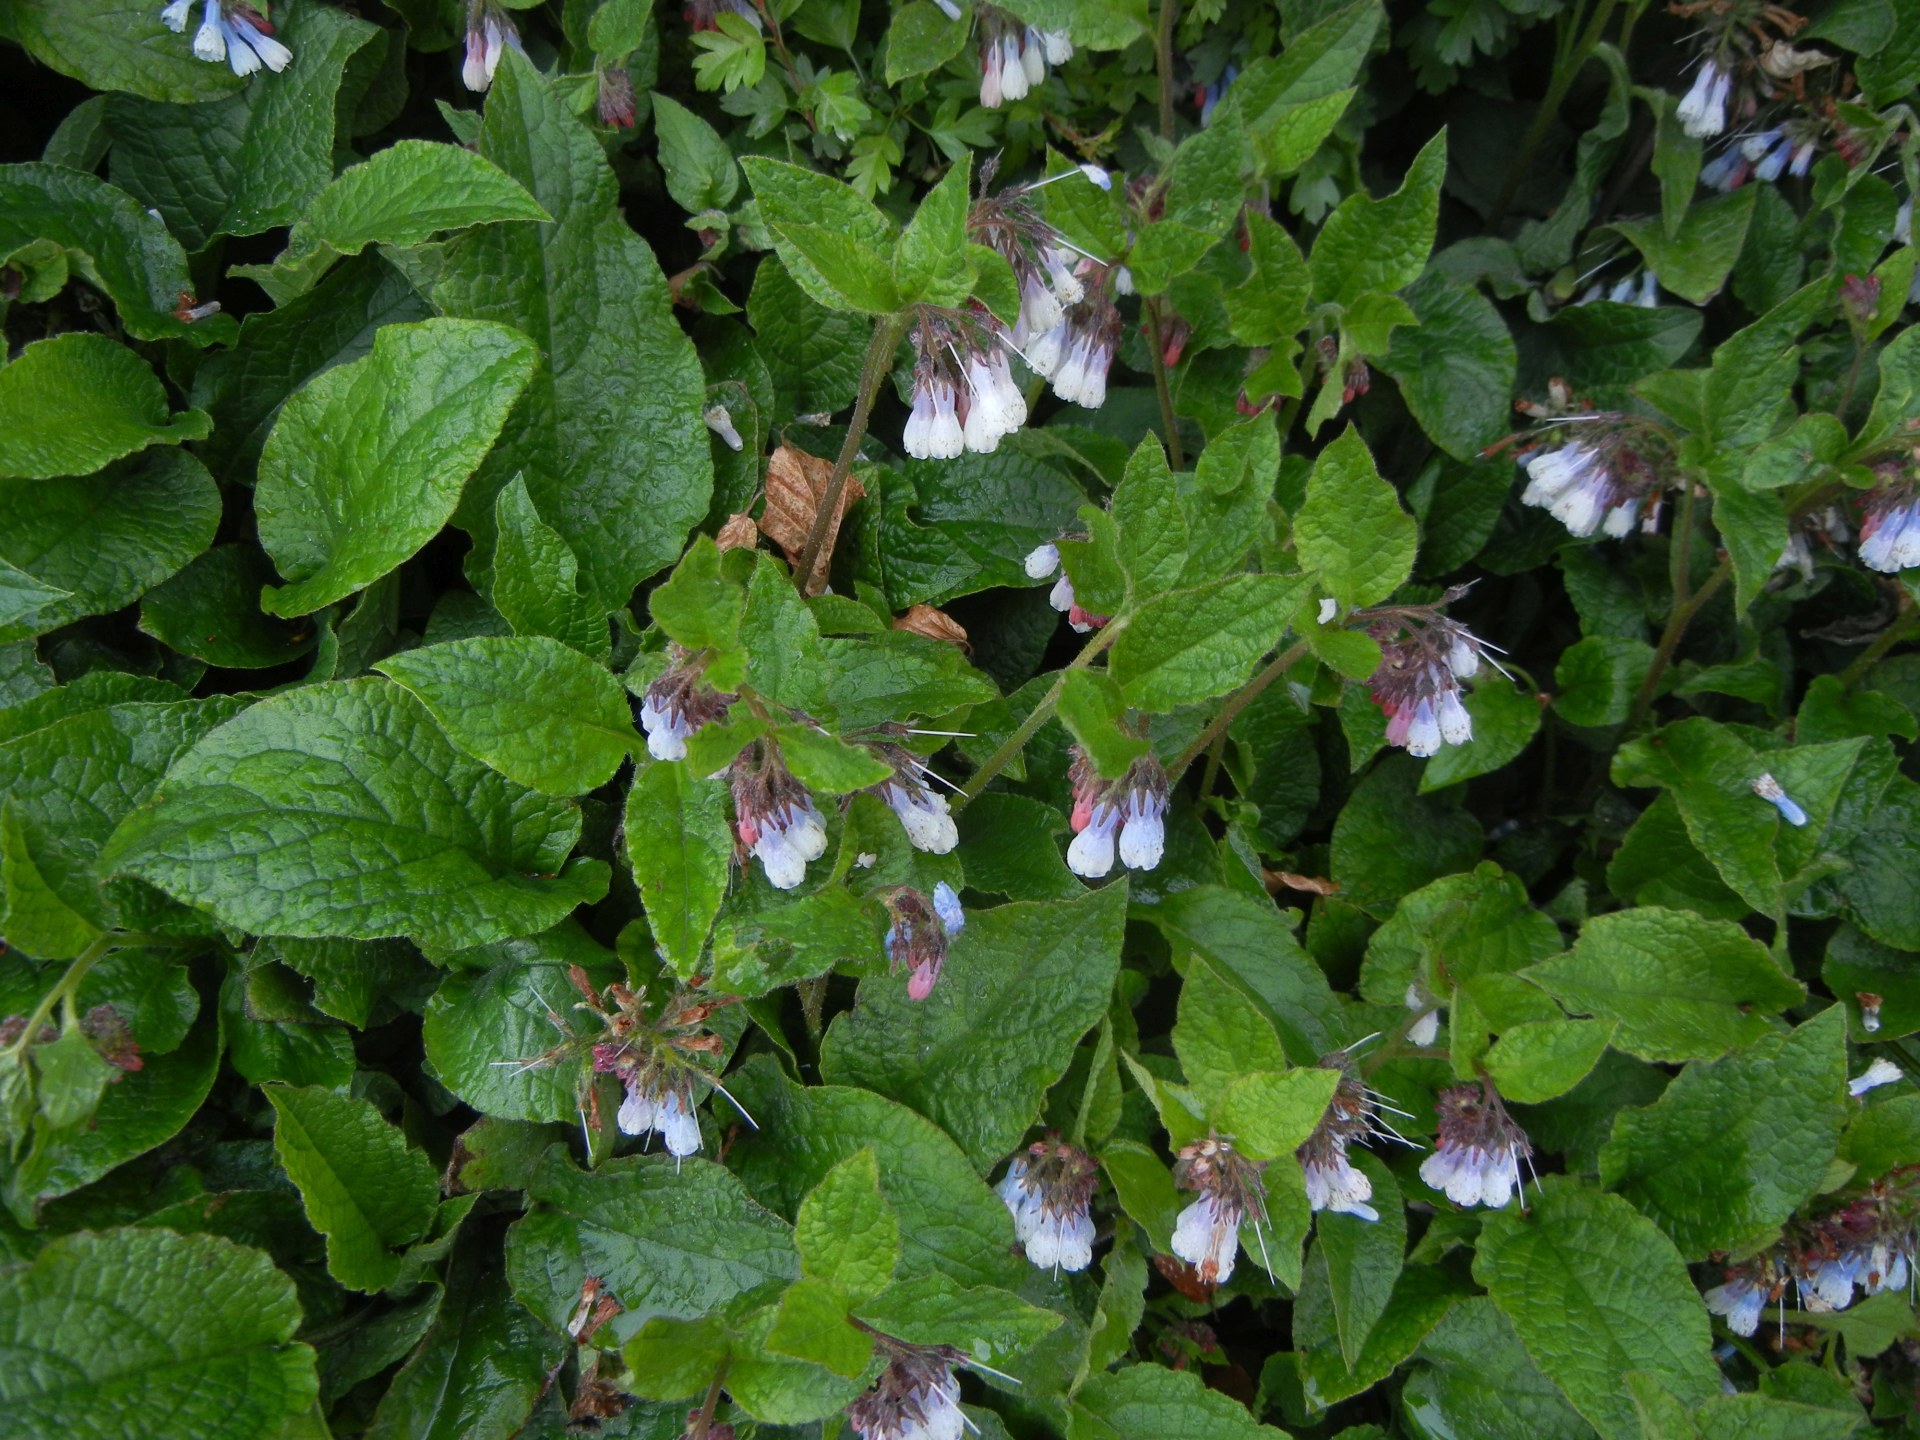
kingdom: Plantae
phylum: Tracheophyta
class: Magnoliopsida
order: Boraginales
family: Boraginaceae
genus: Symphytum
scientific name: Symphytum hidcotense
